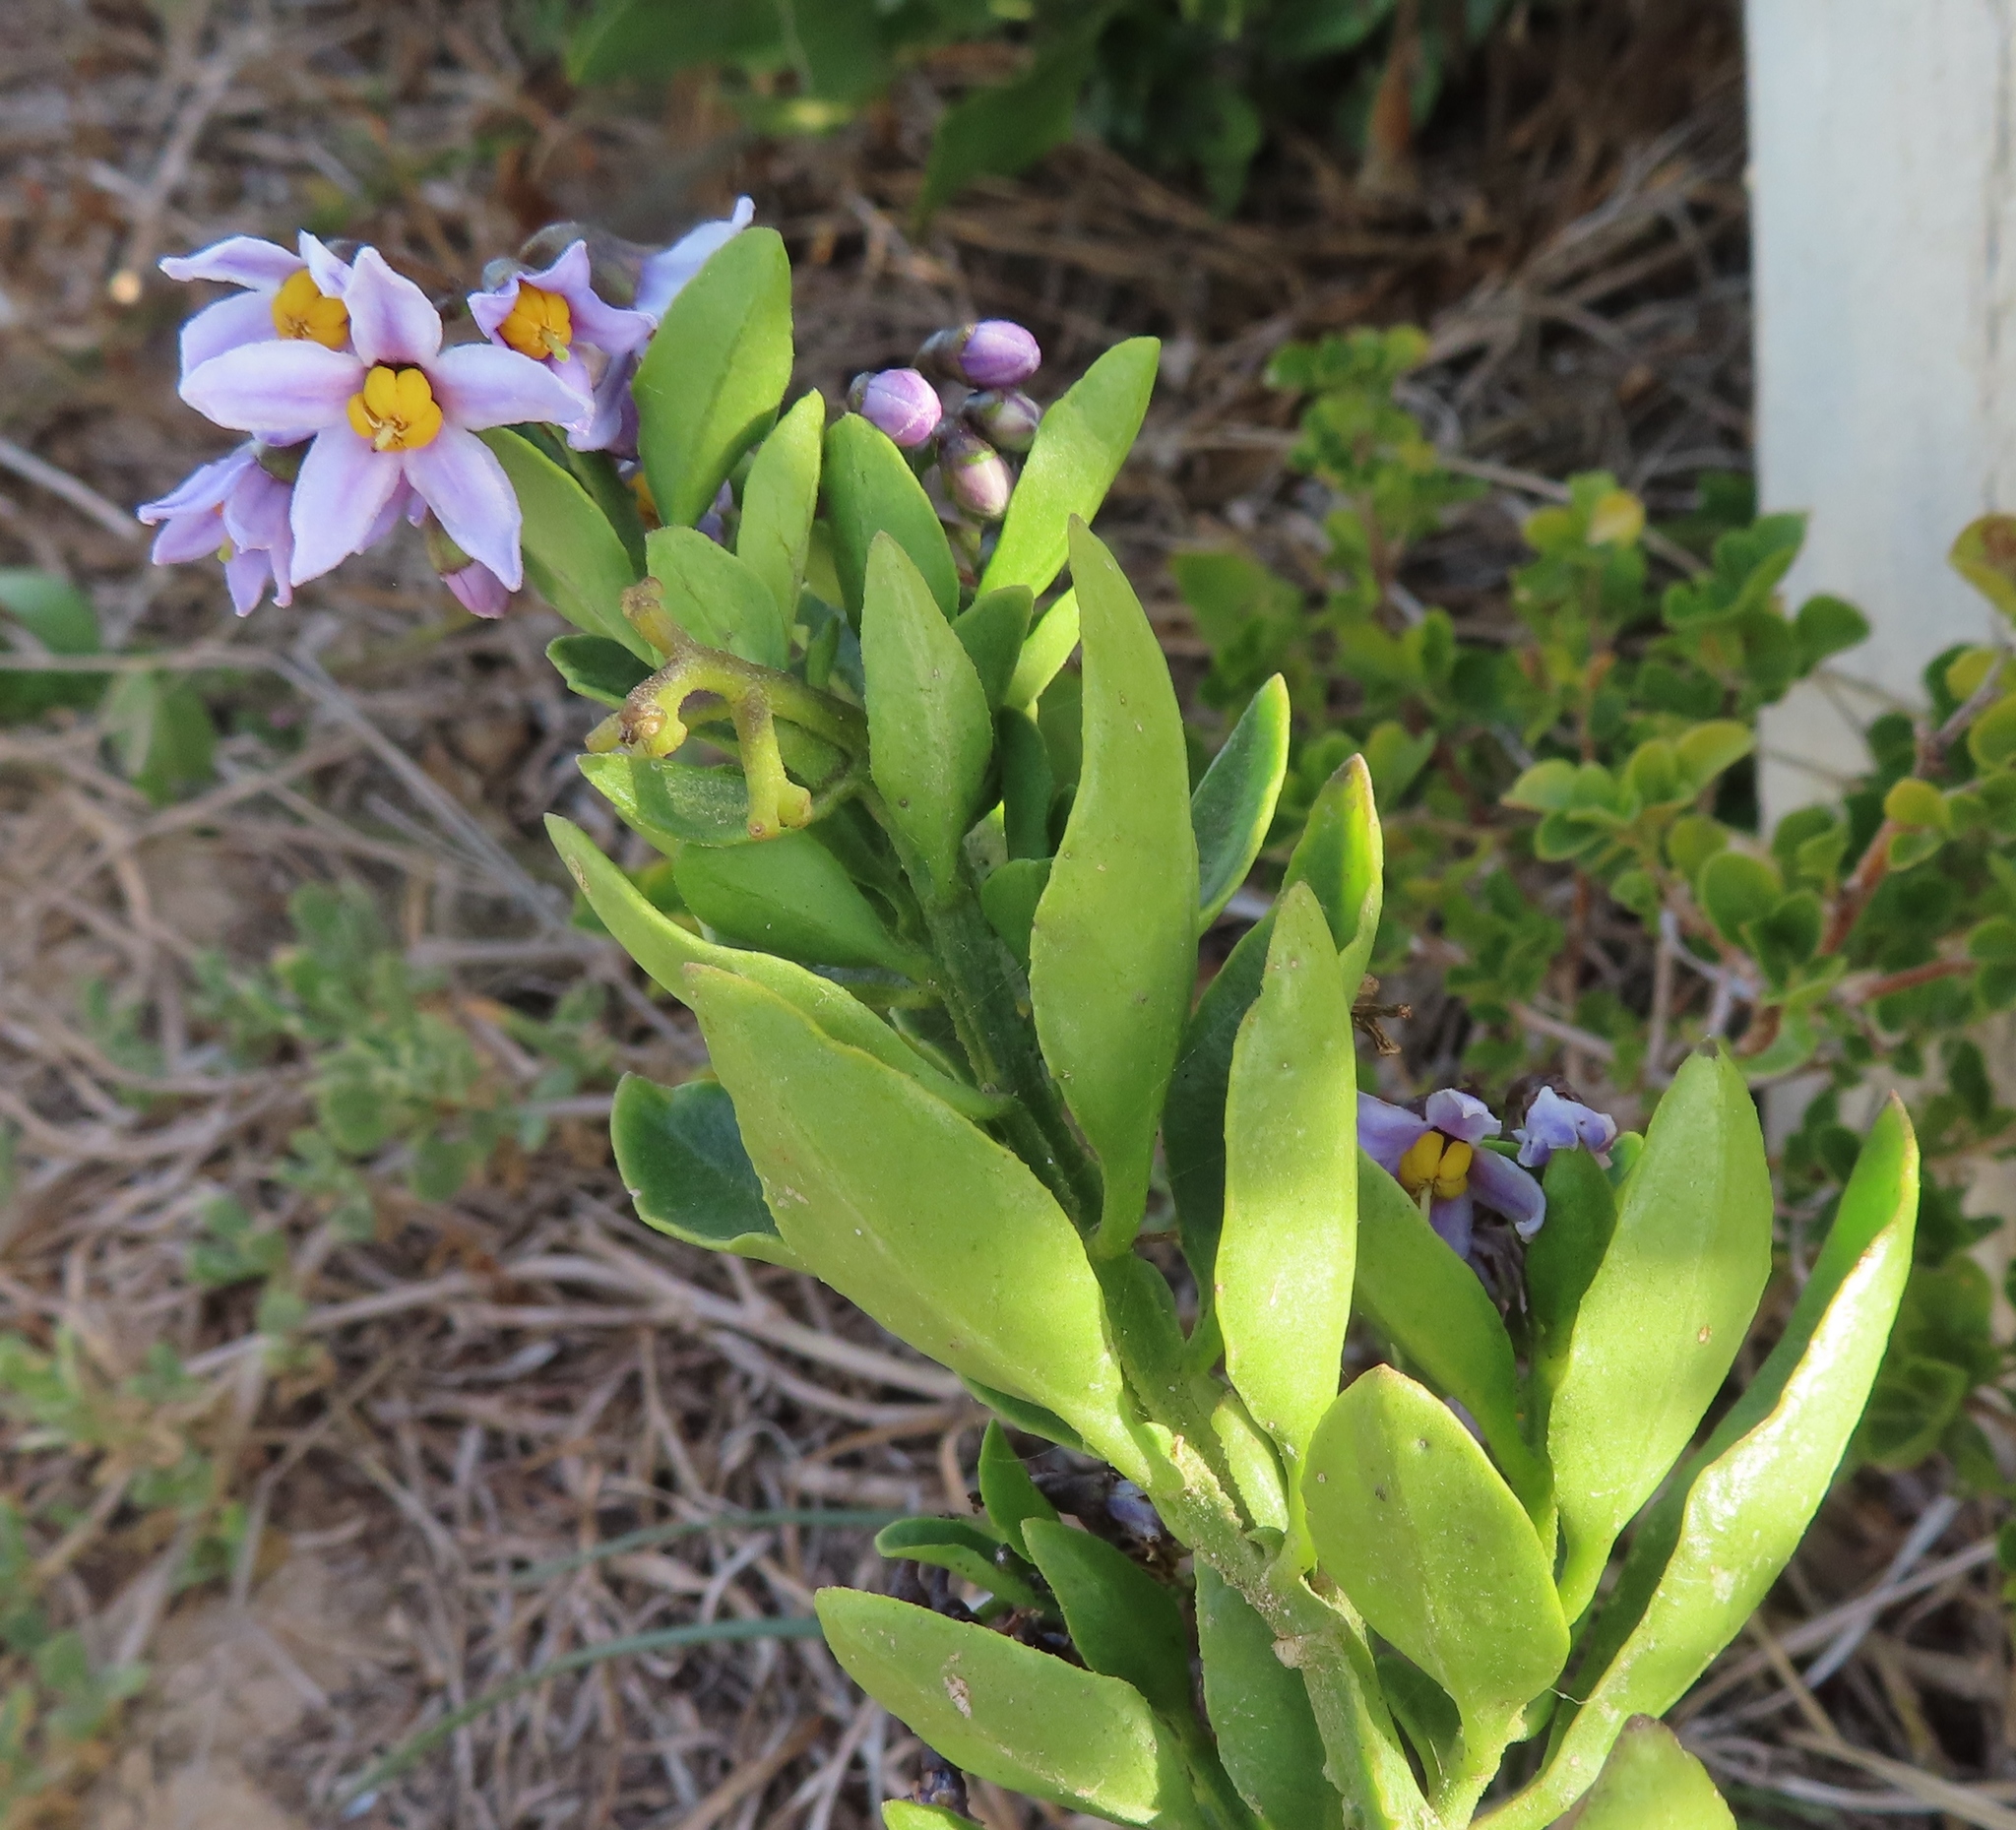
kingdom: Plantae
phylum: Tracheophyta
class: Magnoliopsida
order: Solanales
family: Solanaceae
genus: Solanum
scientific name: Solanum africanum
